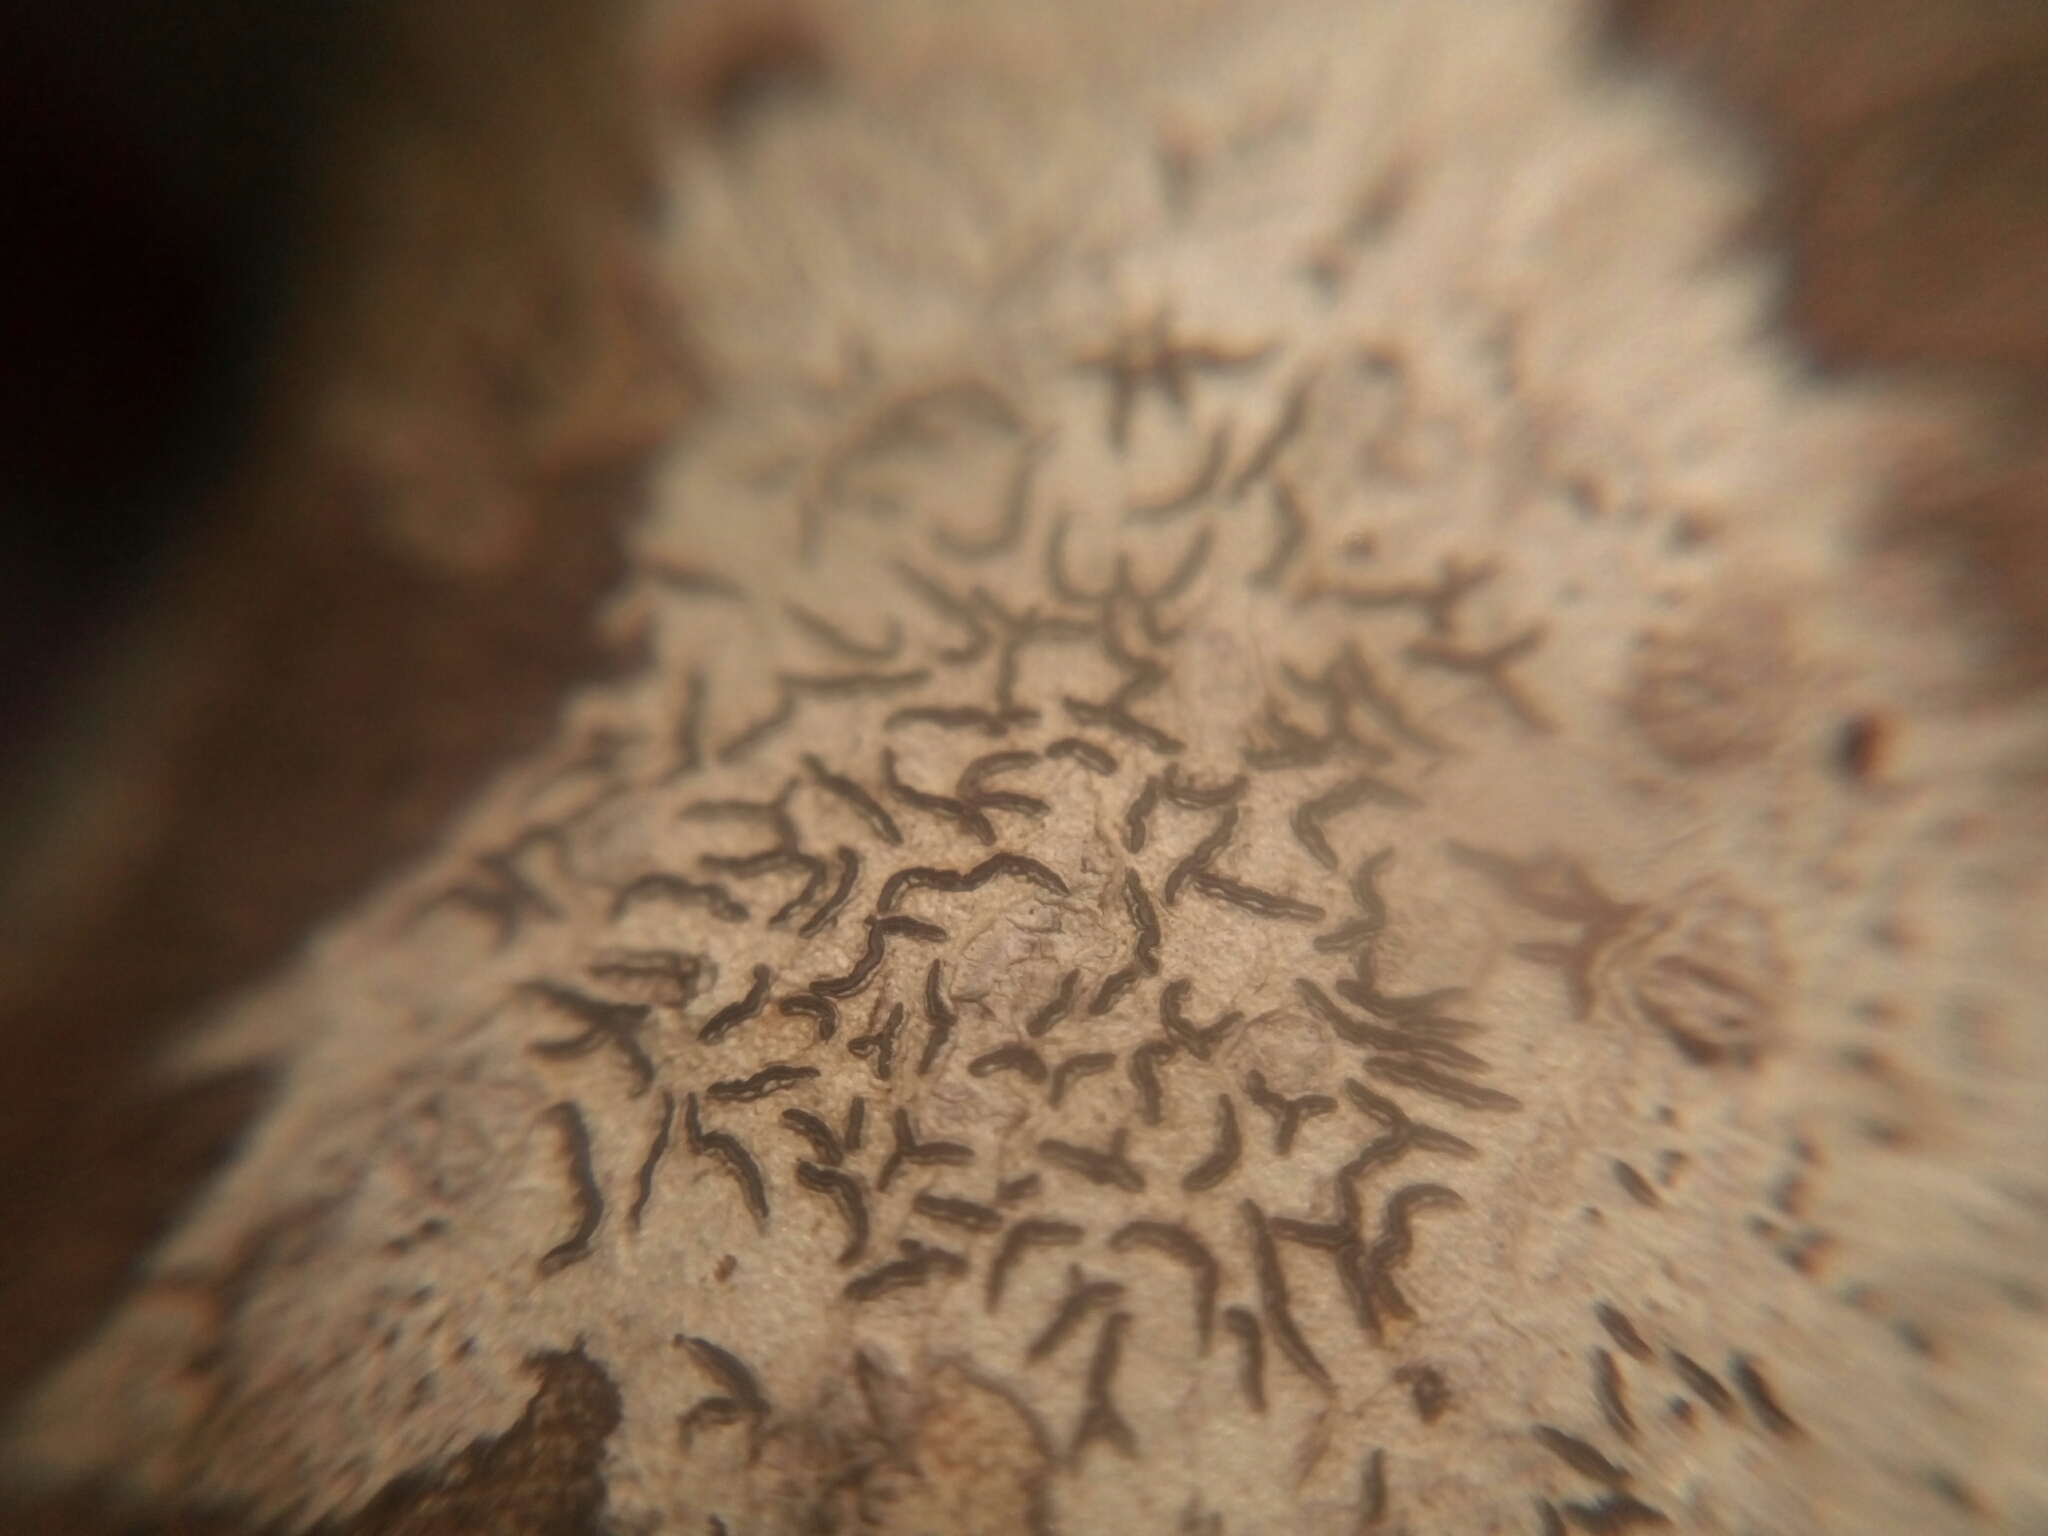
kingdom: Fungi
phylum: Ascomycota
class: Lecanoromycetes
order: Ostropales
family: Graphidaceae
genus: Graphis
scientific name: Graphis scripta
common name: Script lichen
